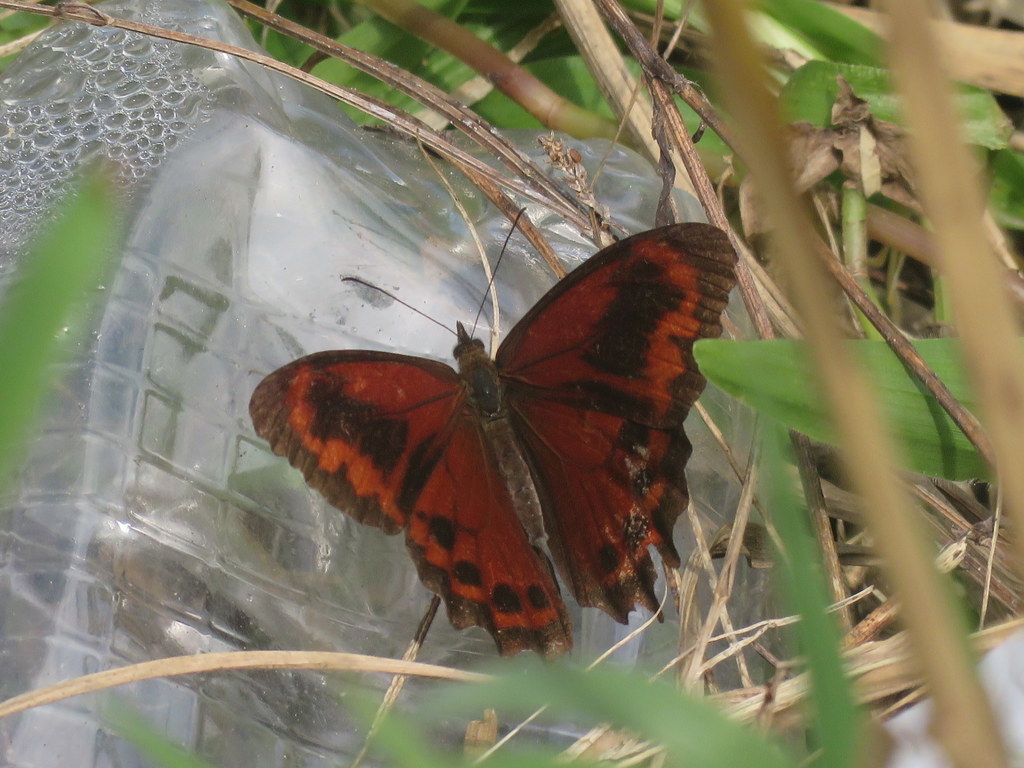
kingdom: Animalia
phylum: Arthropoda
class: Insecta
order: Lepidoptera
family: Nymphalidae
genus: Lasiophila
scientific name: Lasiophila orbifera
